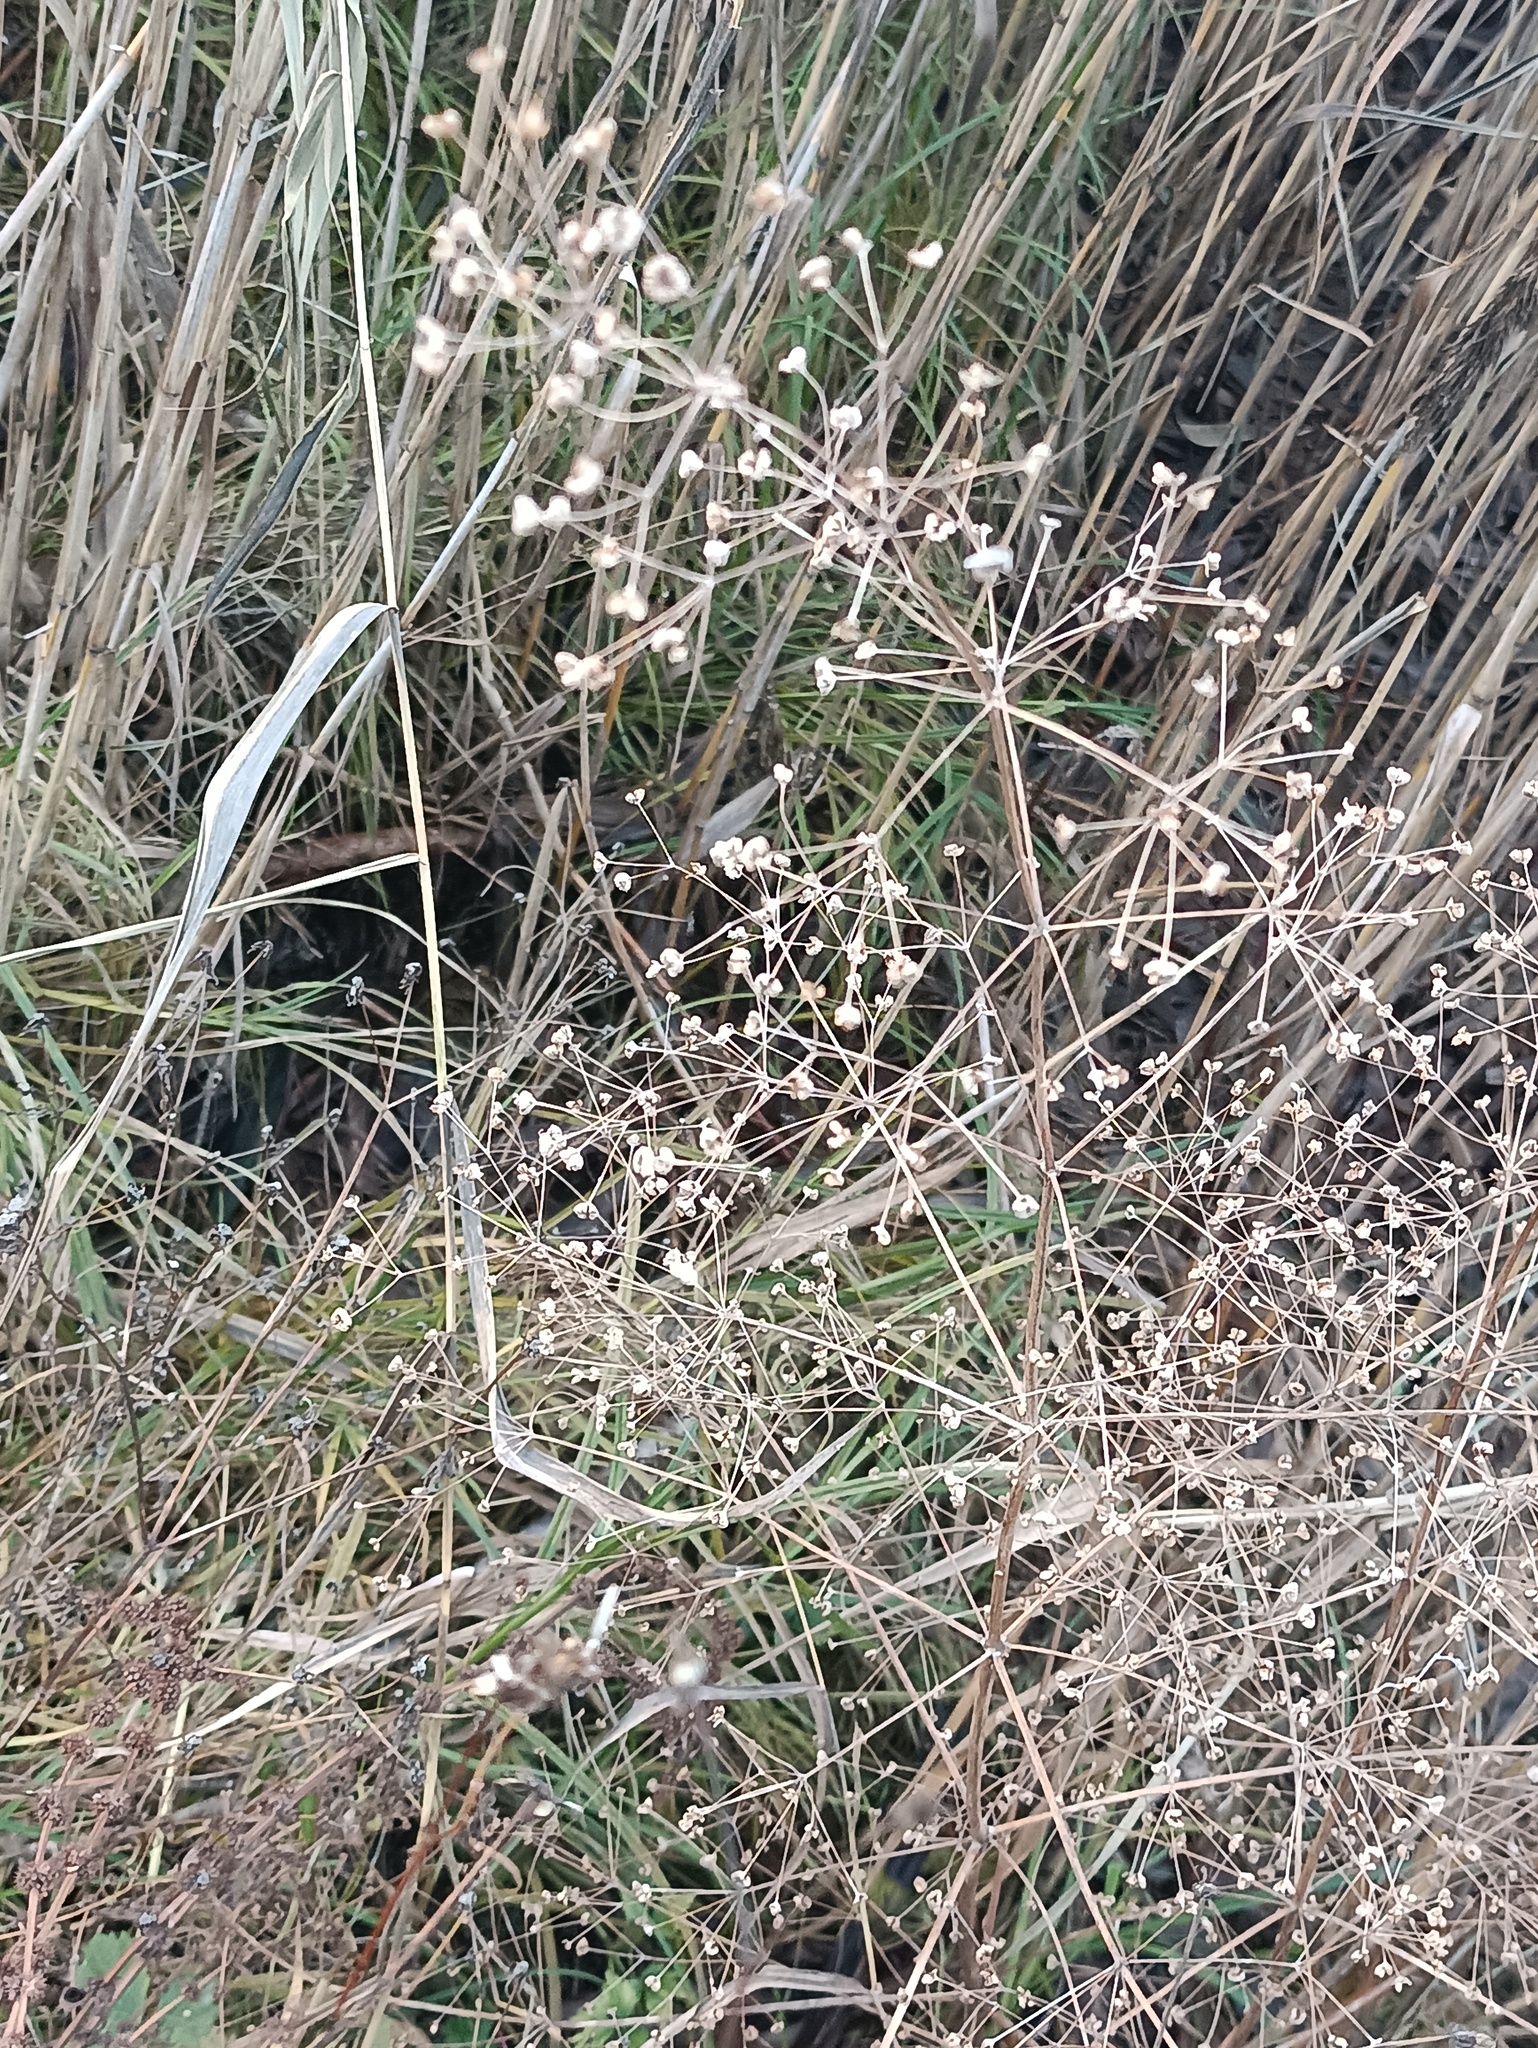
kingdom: Plantae
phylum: Tracheophyta
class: Liliopsida
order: Alismatales
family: Alismataceae
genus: Alisma
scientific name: Alisma plantago-aquatica
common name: Water-plantain
